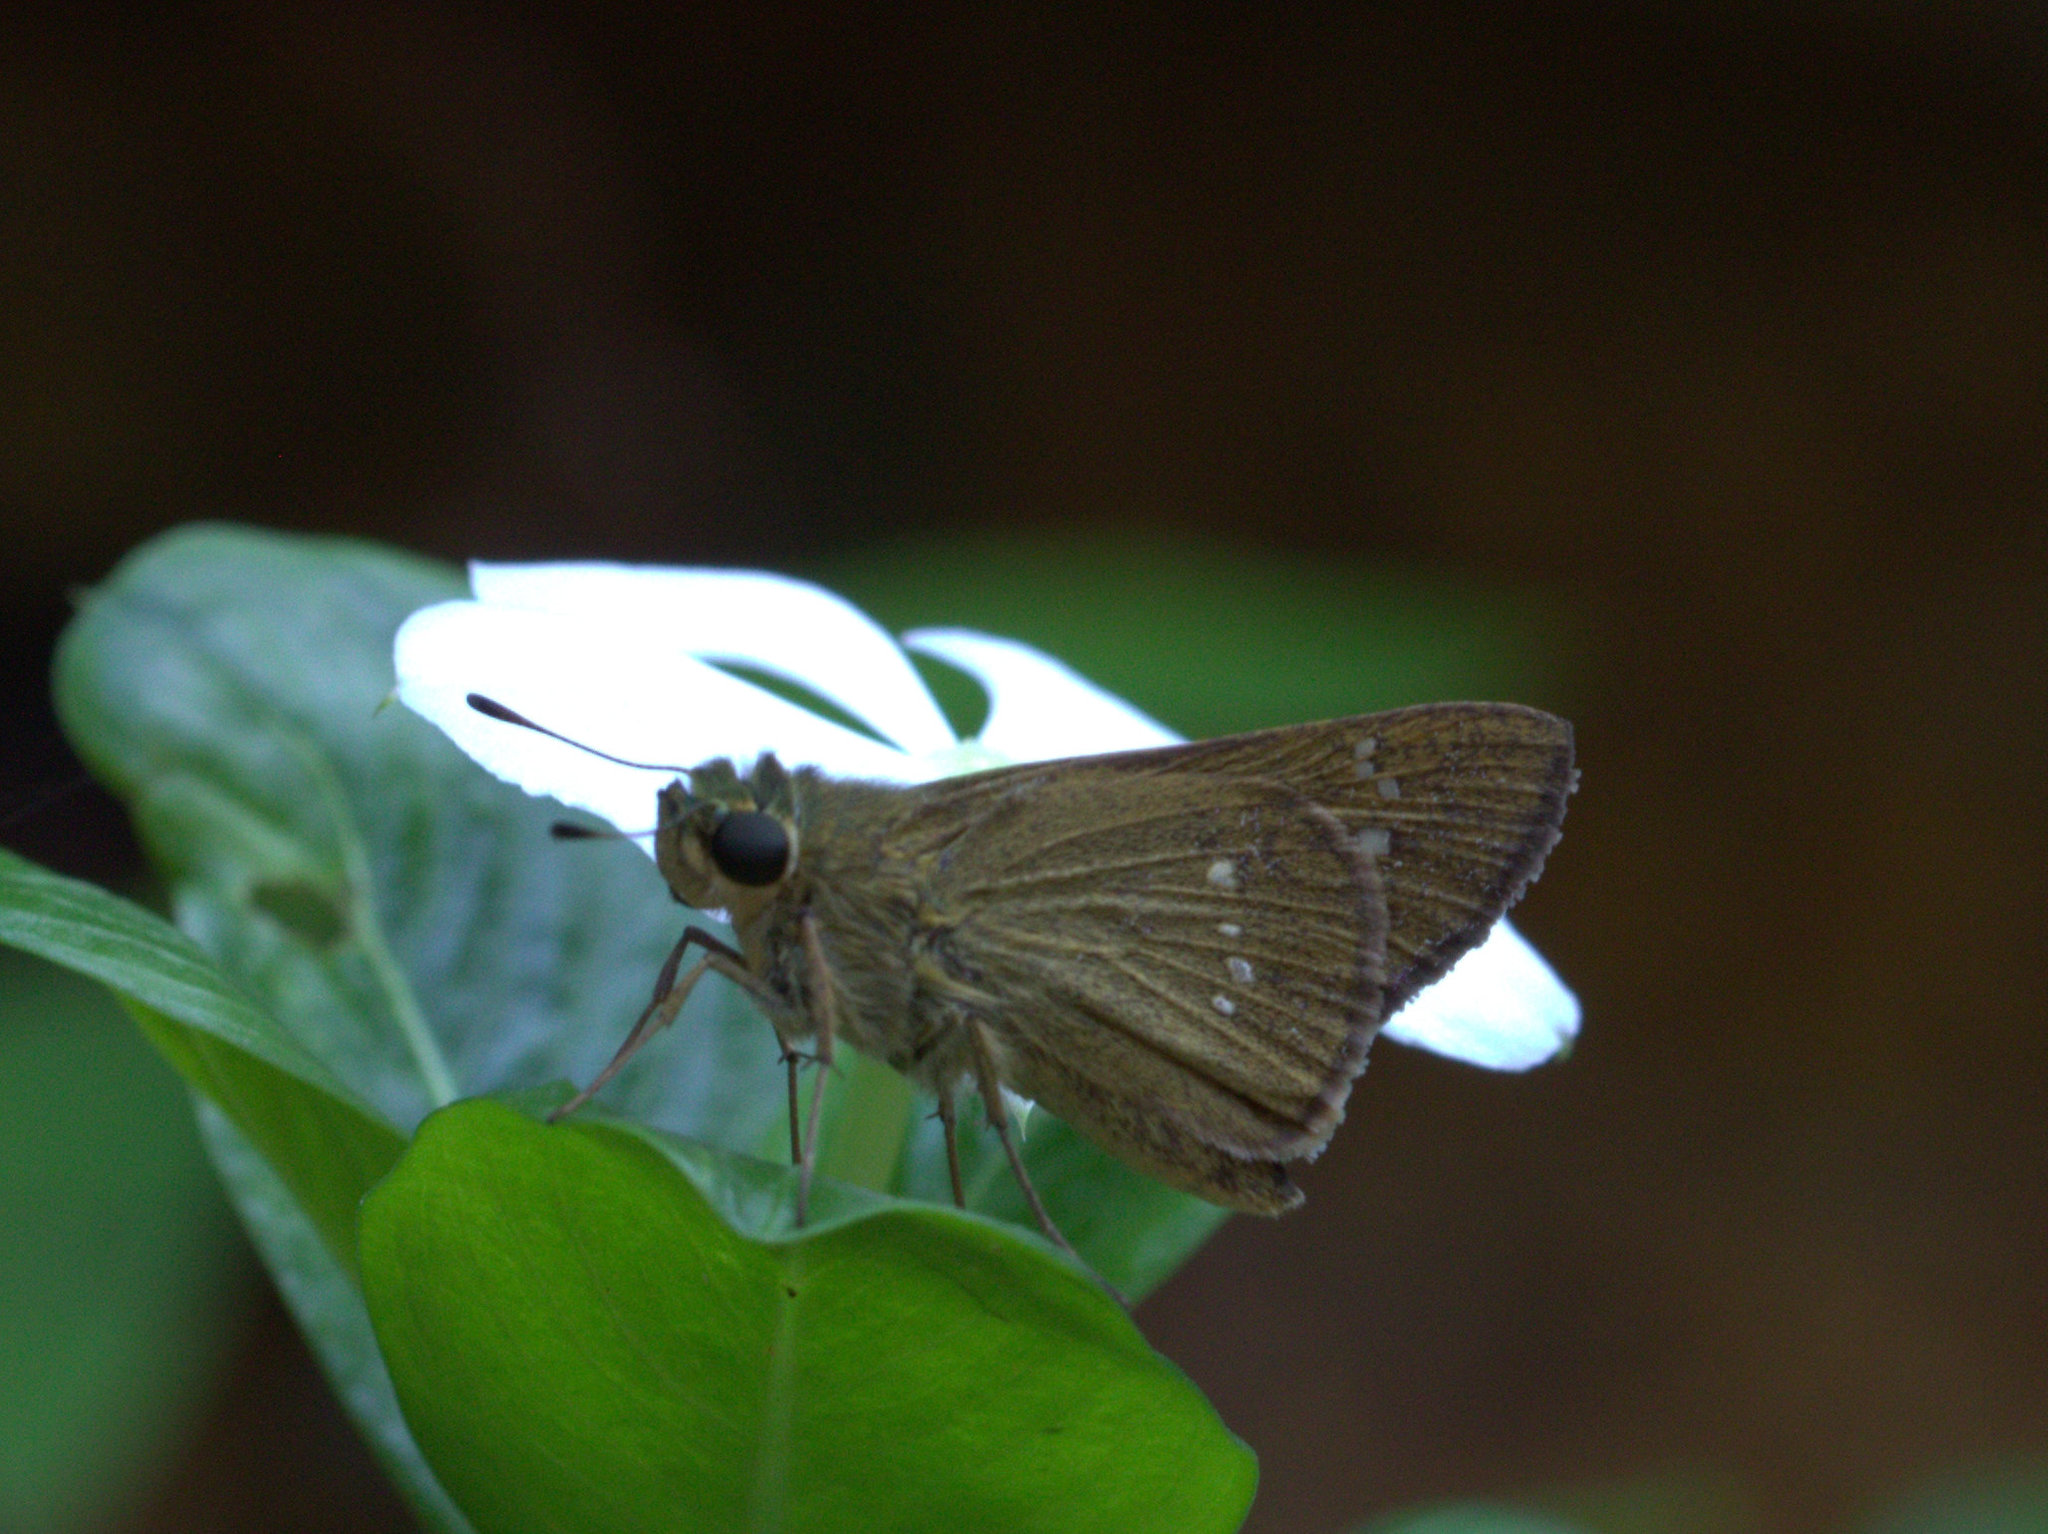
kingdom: Animalia
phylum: Arthropoda
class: Insecta
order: Lepidoptera
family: Hesperiidae
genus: Borbo
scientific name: Borbo cinnara
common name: Formosan swift
